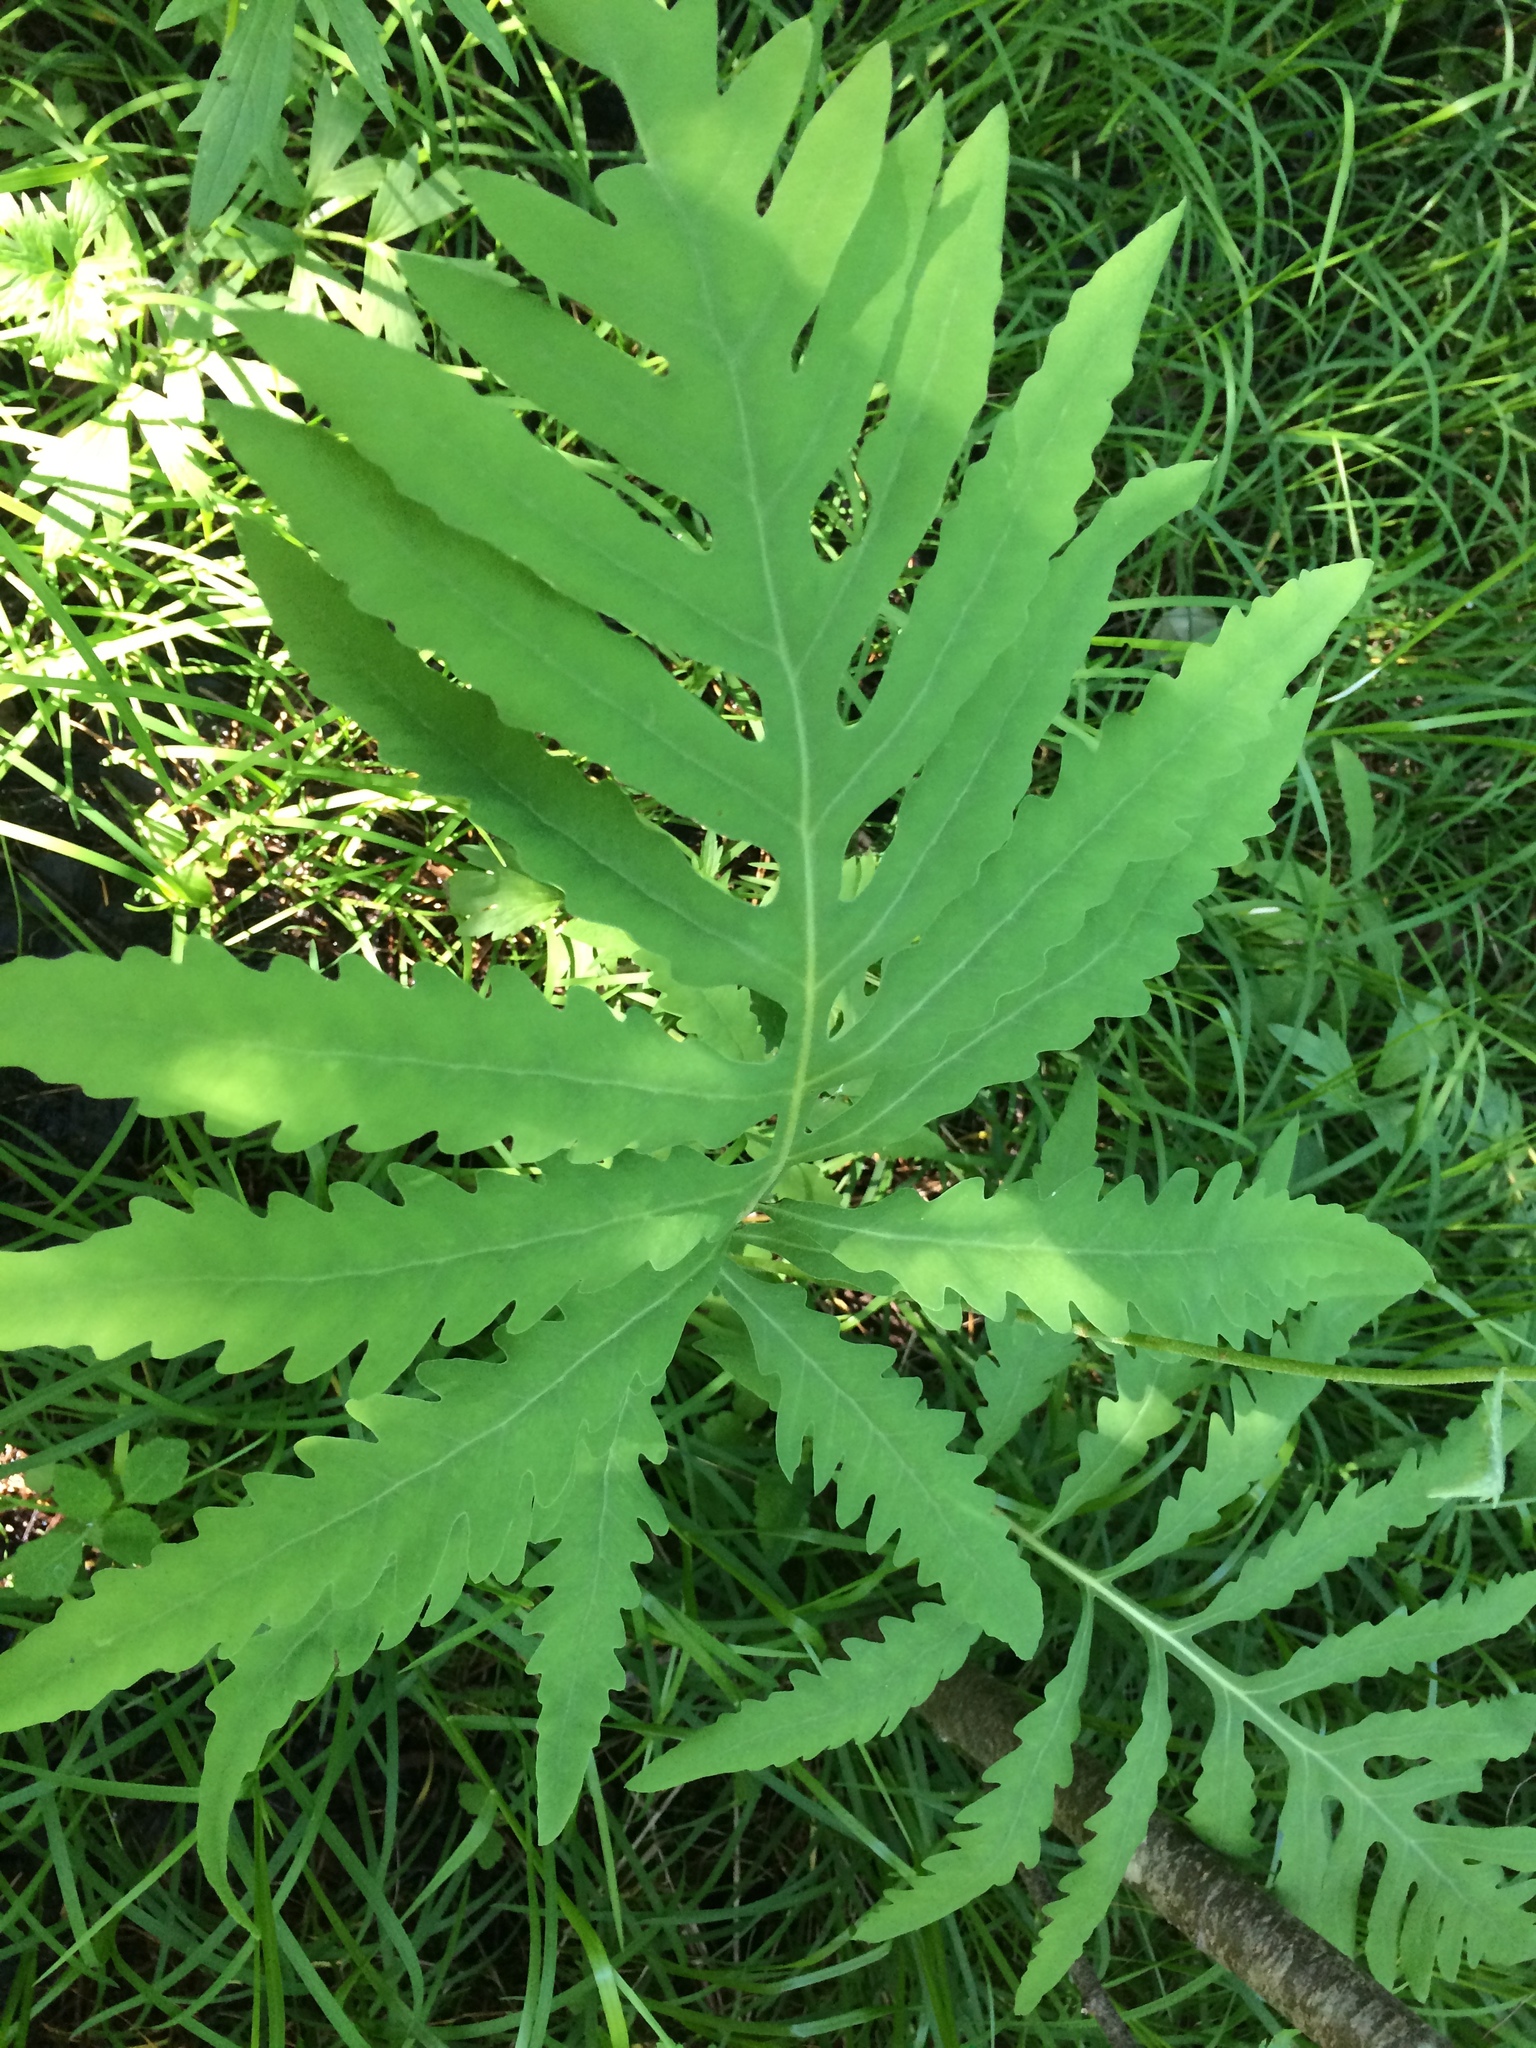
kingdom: Plantae
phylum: Tracheophyta
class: Polypodiopsida
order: Polypodiales
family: Onocleaceae
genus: Onoclea
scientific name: Onoclea sensibilis
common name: Sensitive fern
